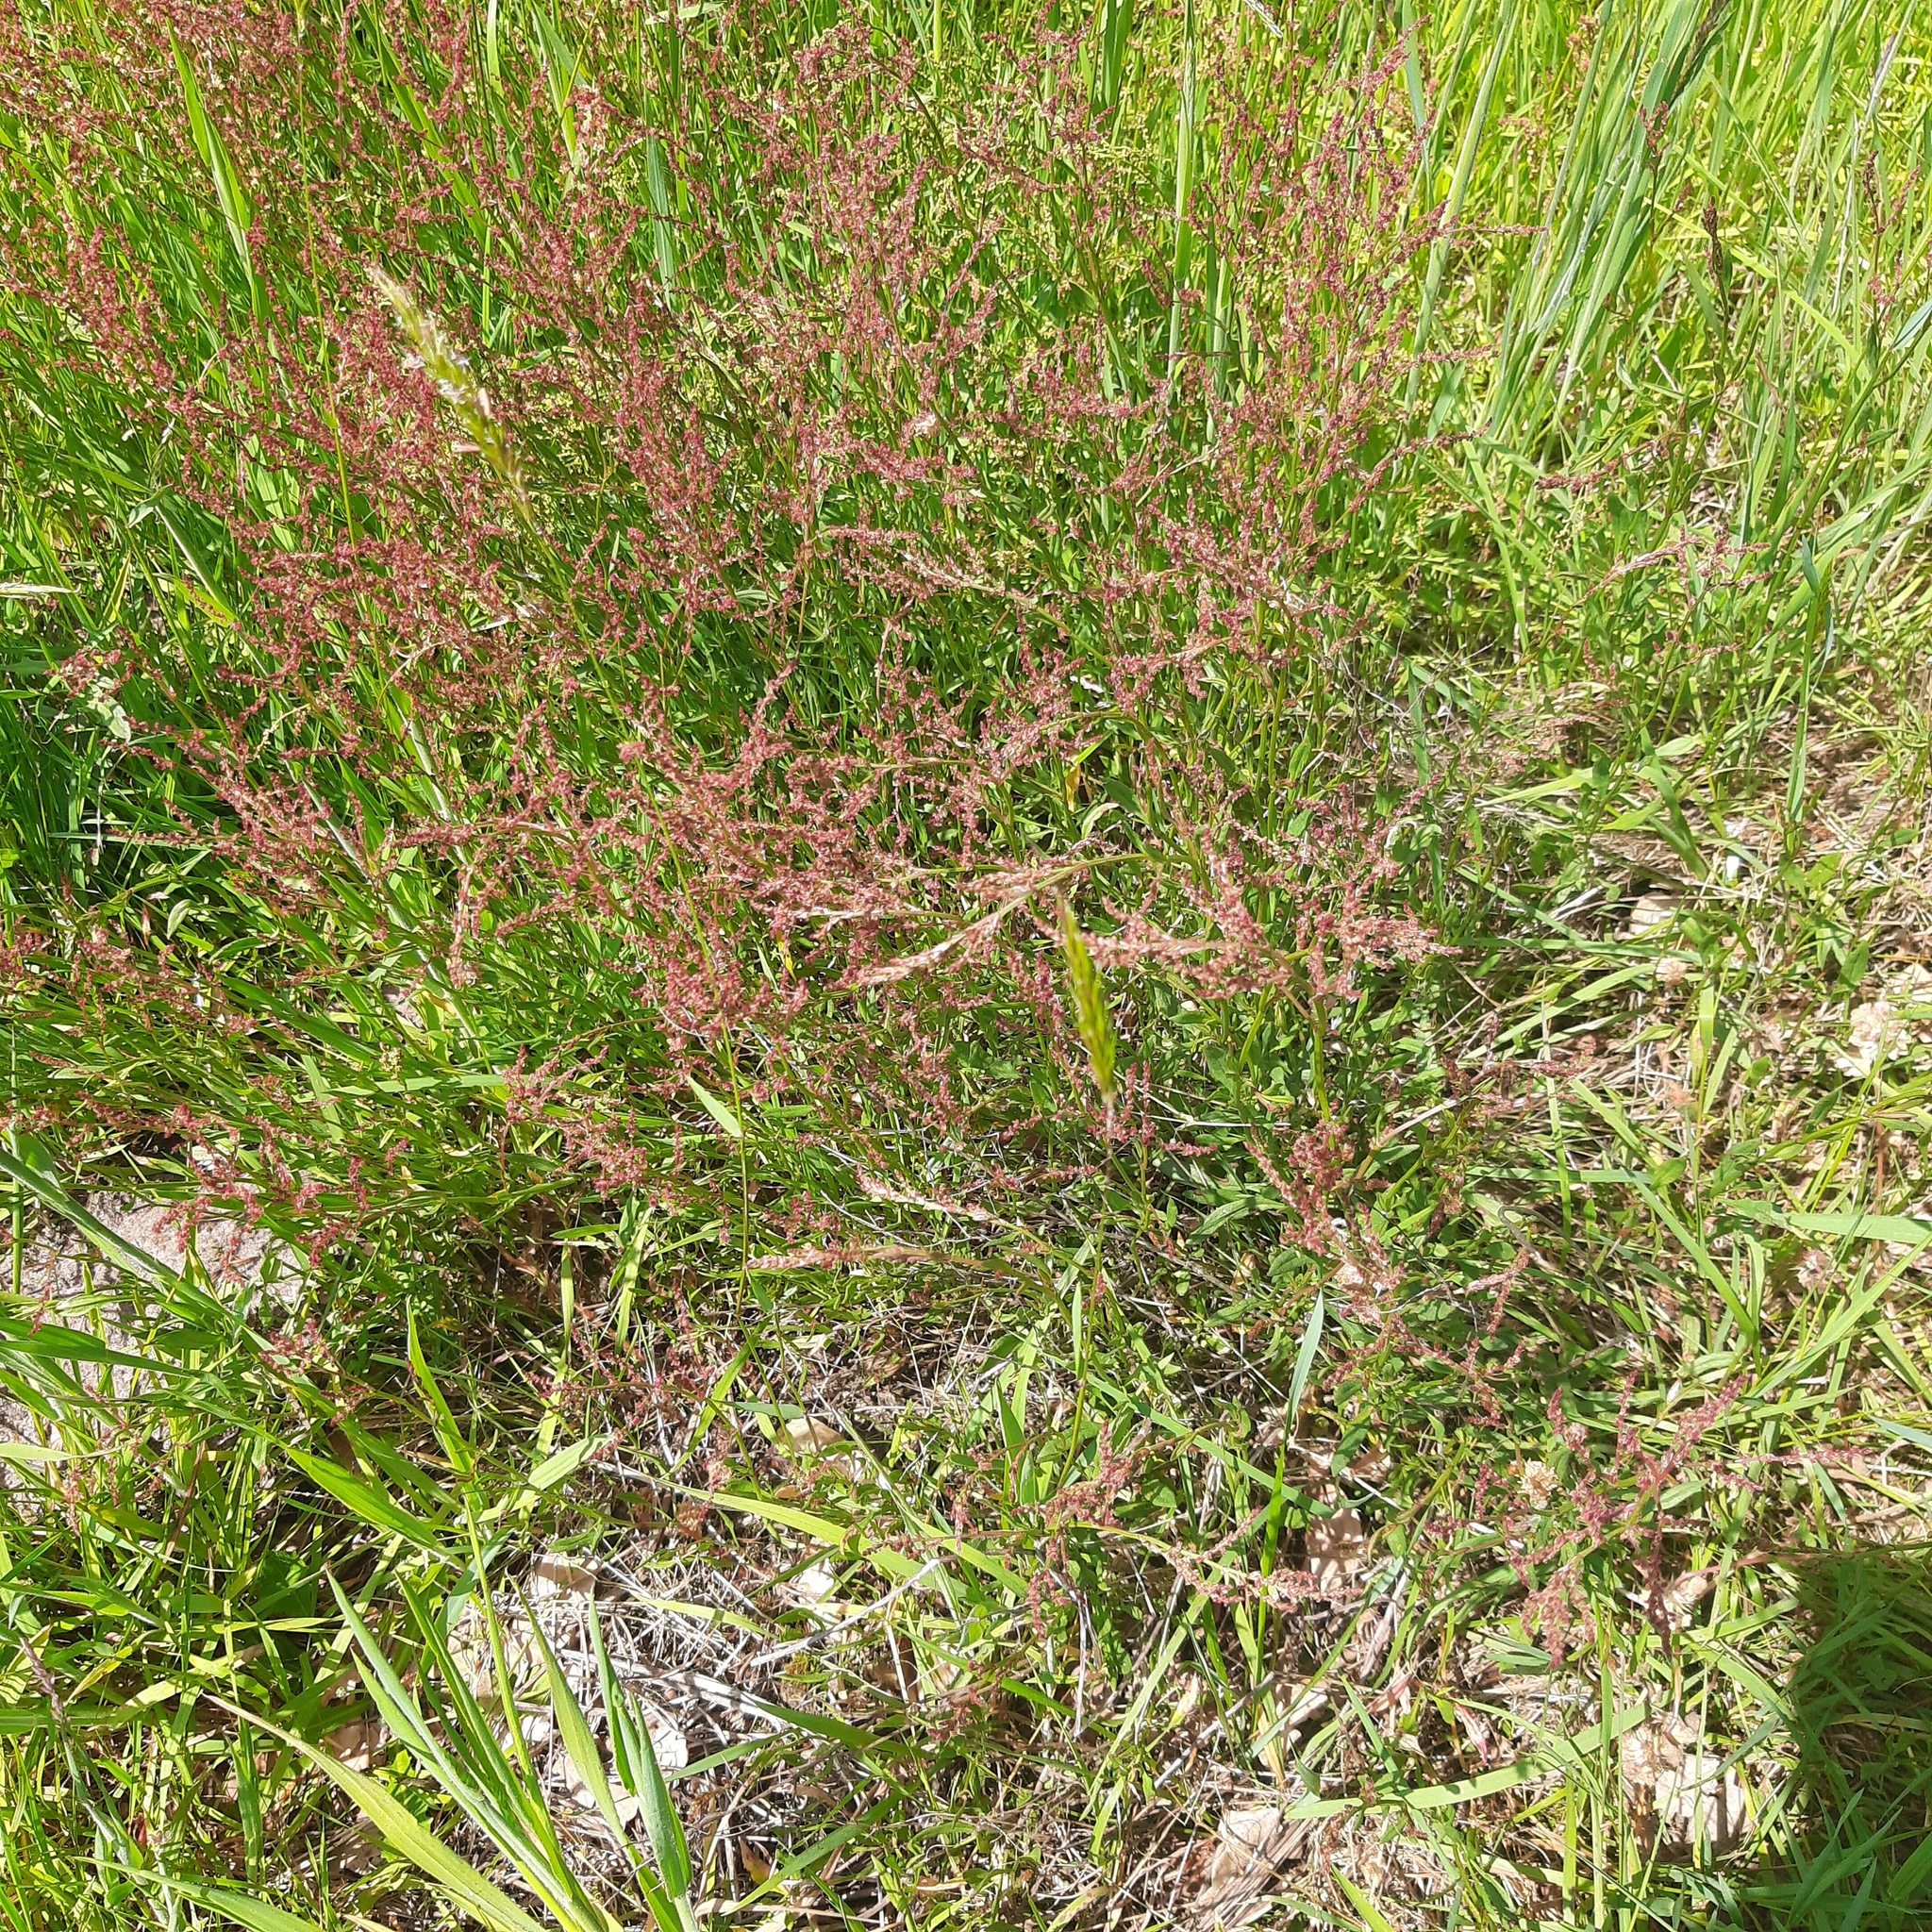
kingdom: Plantae
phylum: Tracheophyta
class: Magnoliopsida
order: Caryophyllales
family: Polygonaceae
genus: Rumex
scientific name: Rumex
